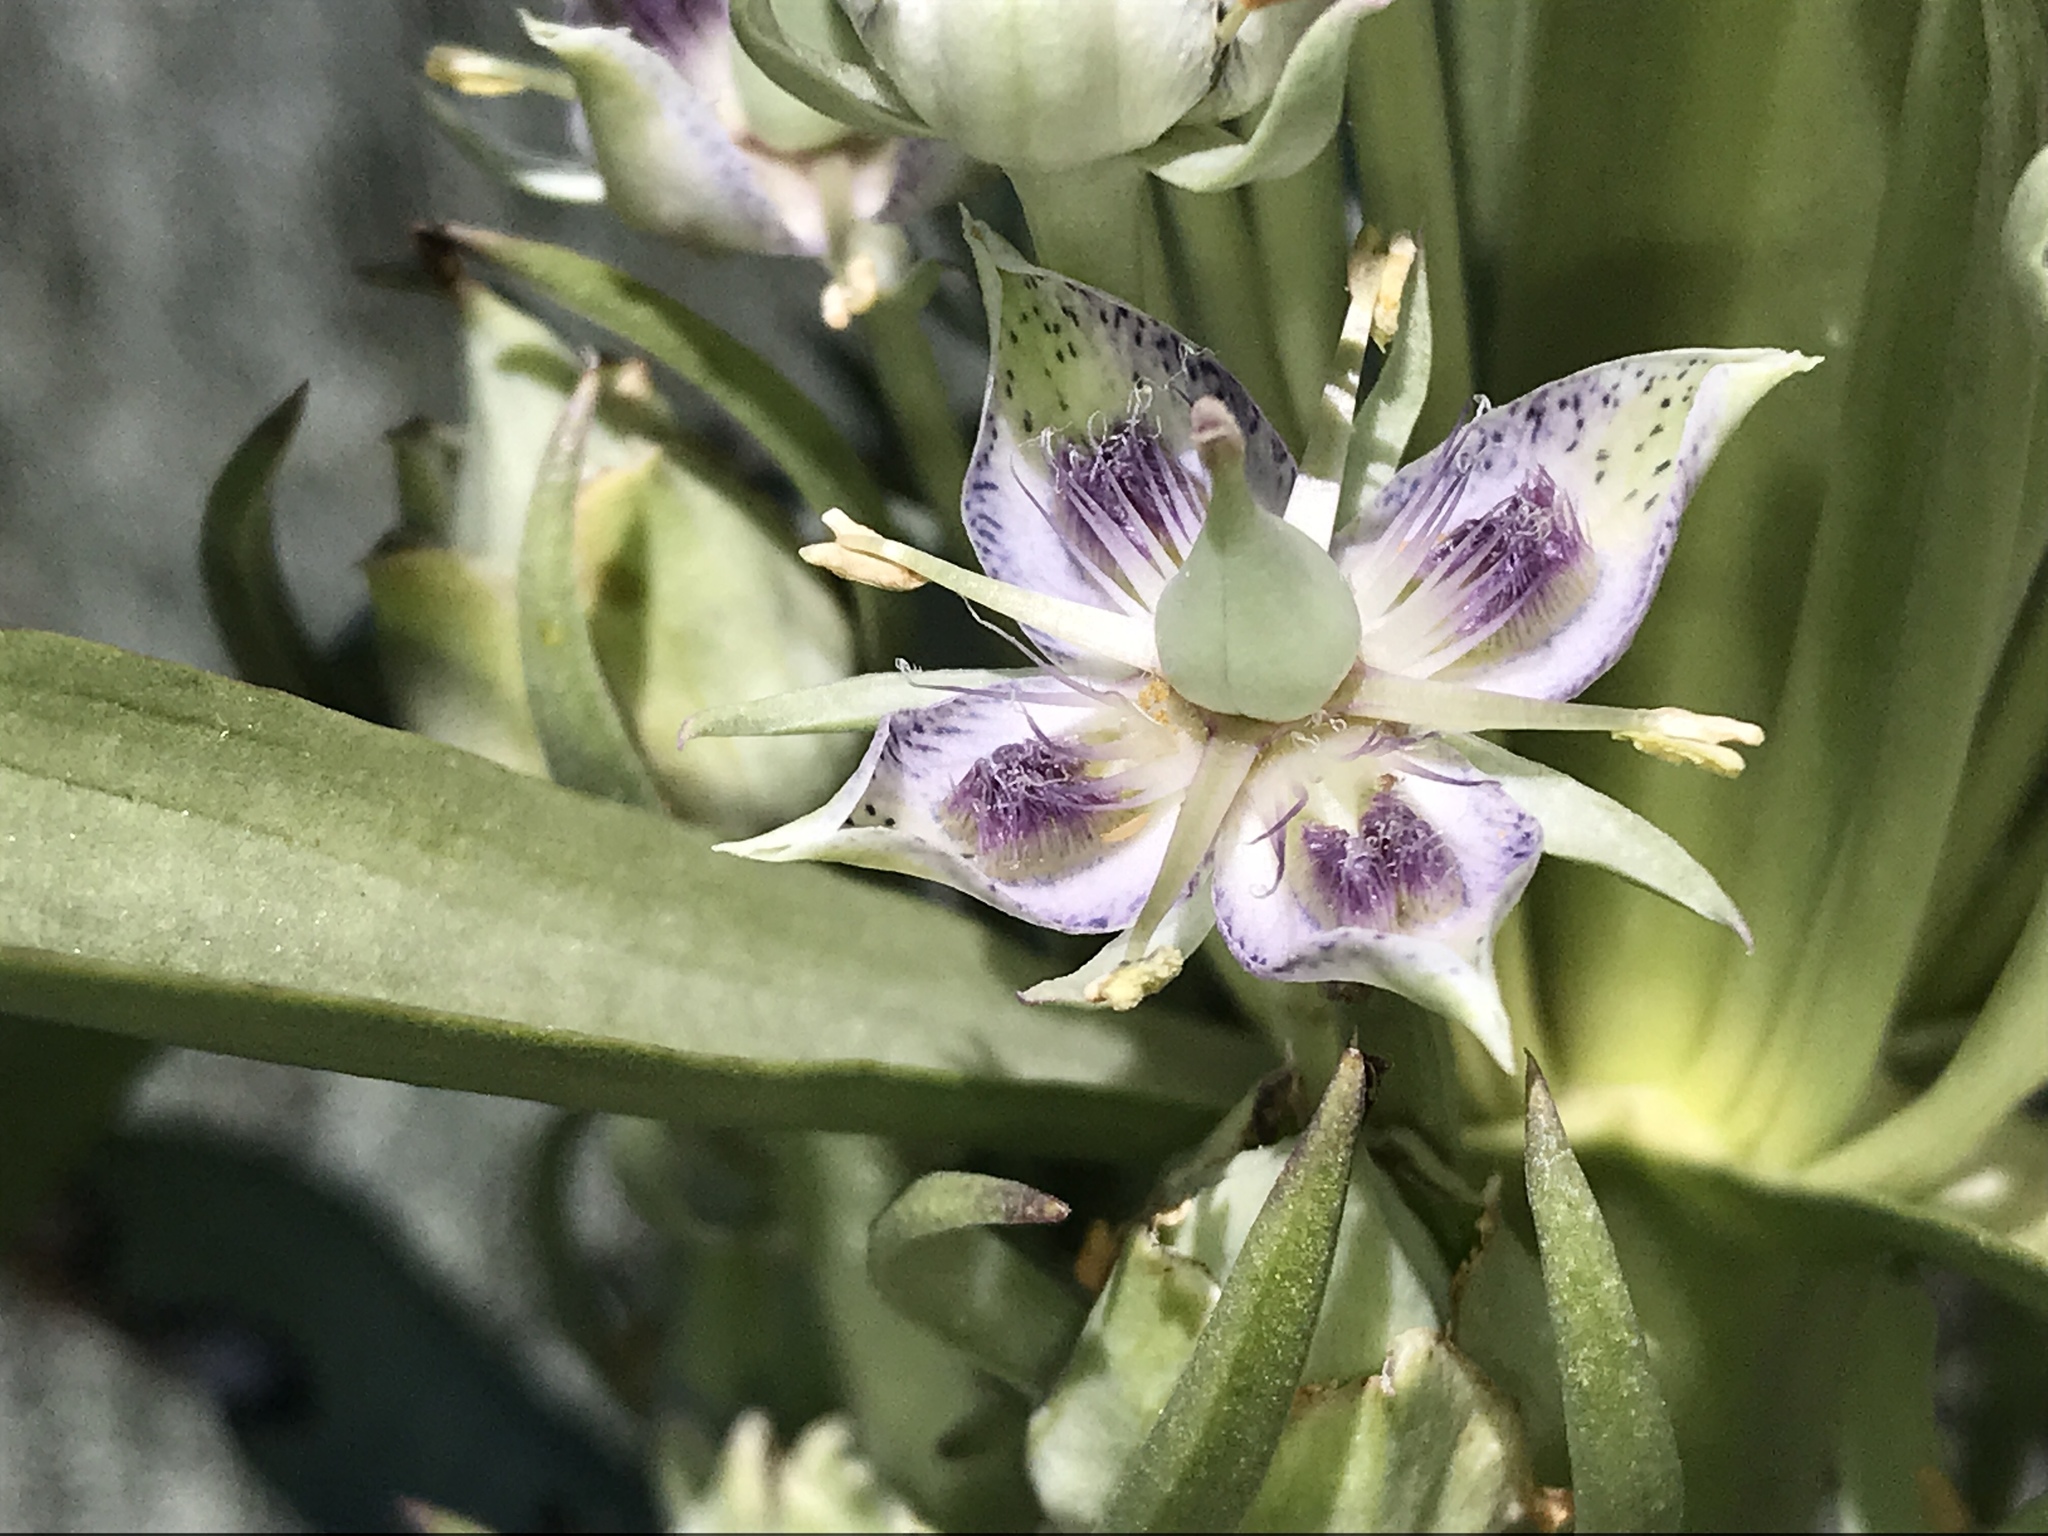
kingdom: Plantae
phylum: Tracheophyta
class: Magnoliopsida
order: Gentianales
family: Gentianaceae
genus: Frasera
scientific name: Frasera speciosa
